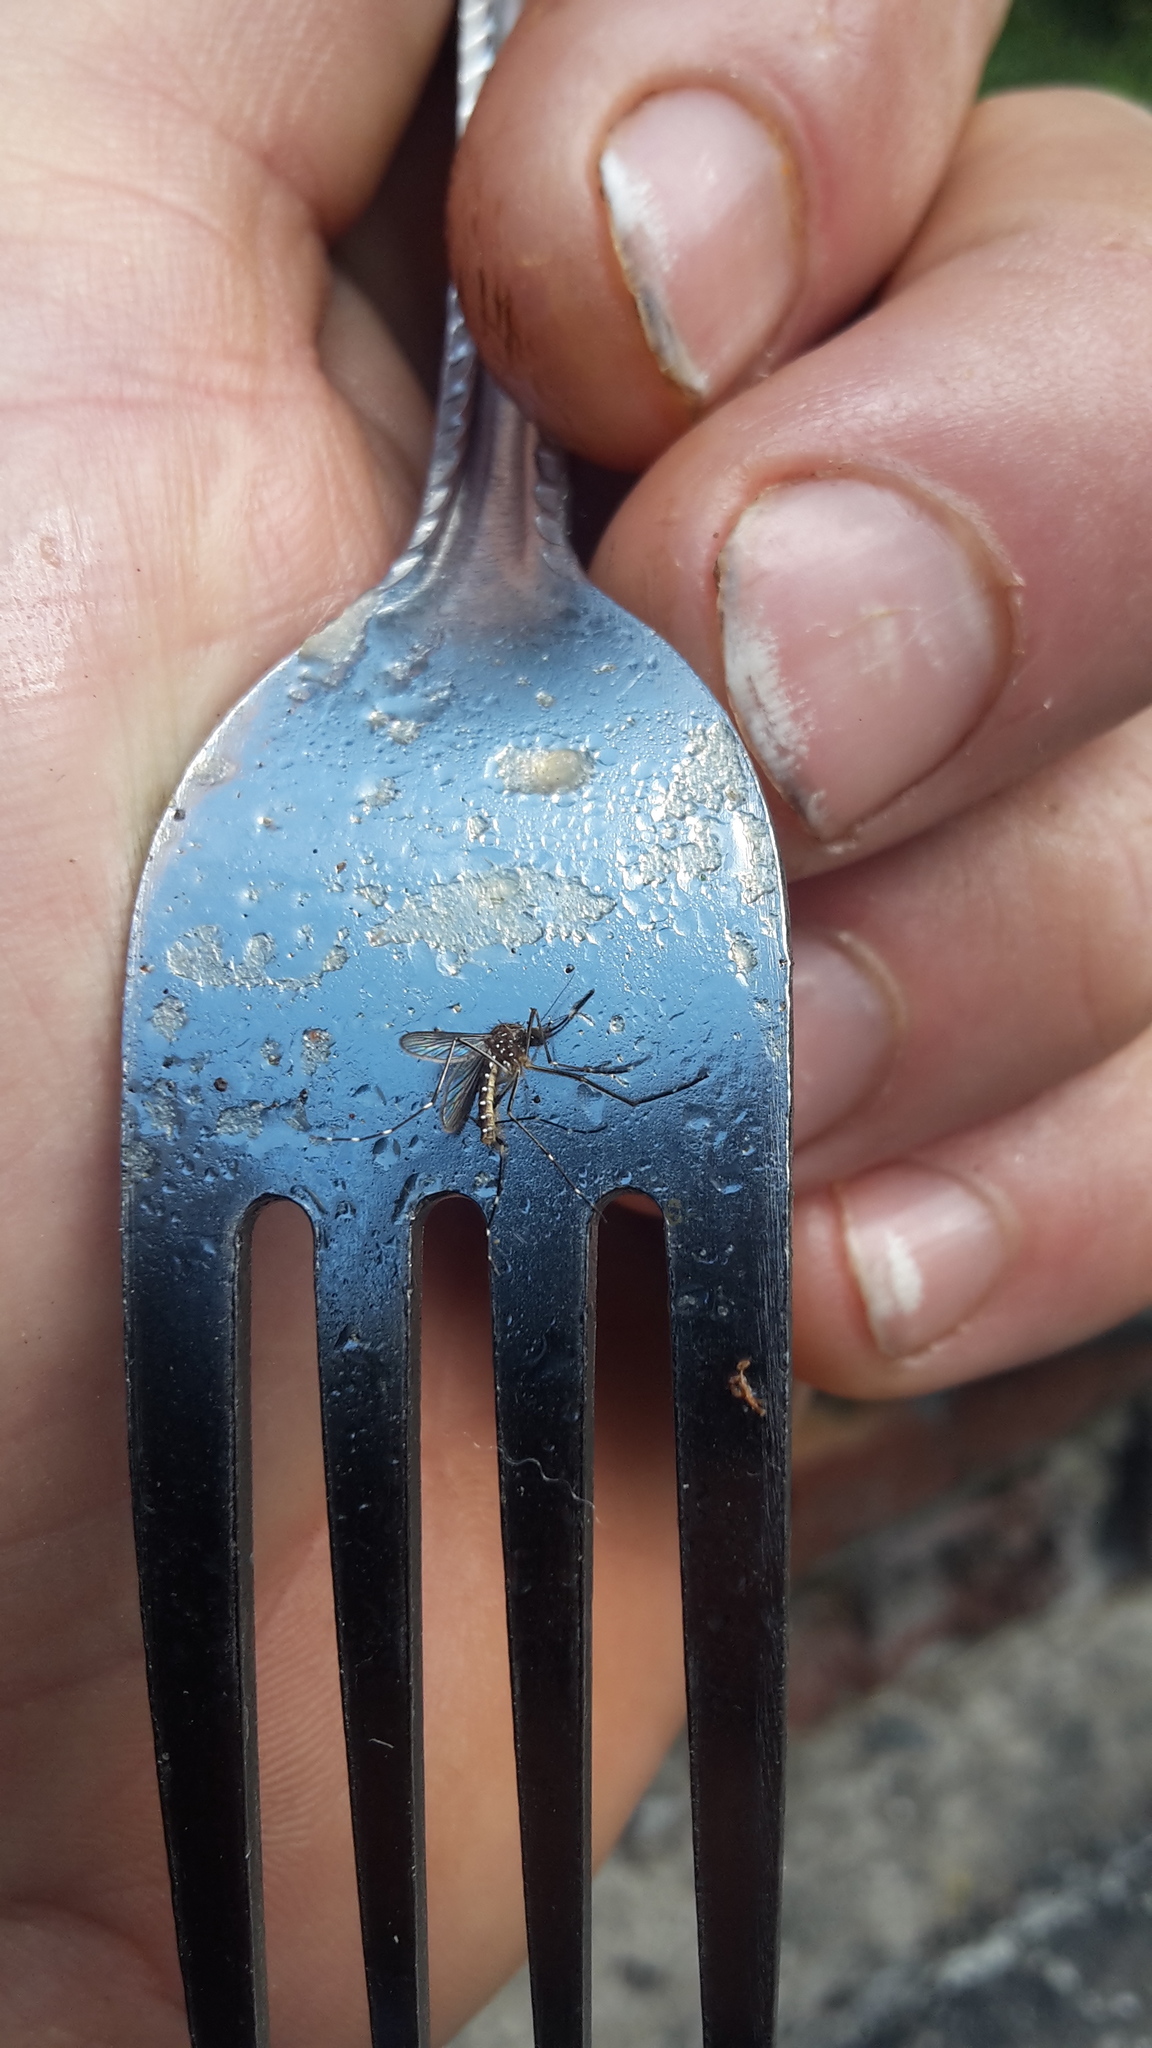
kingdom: Animalia
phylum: Arthropoda
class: Insecta
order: Diptera
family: Culicidae
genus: Aedes
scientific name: Aedes notoscriptus
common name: Australian backyard mosquito
